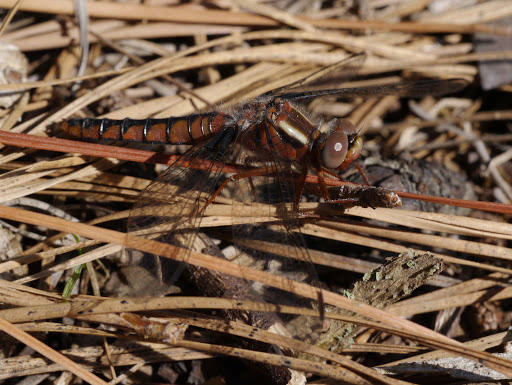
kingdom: Animalia
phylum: Arthropoda
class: Insecta
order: Odonata
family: Libellulidae
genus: Ladona
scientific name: Ladona deplanata
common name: Blue corporal
